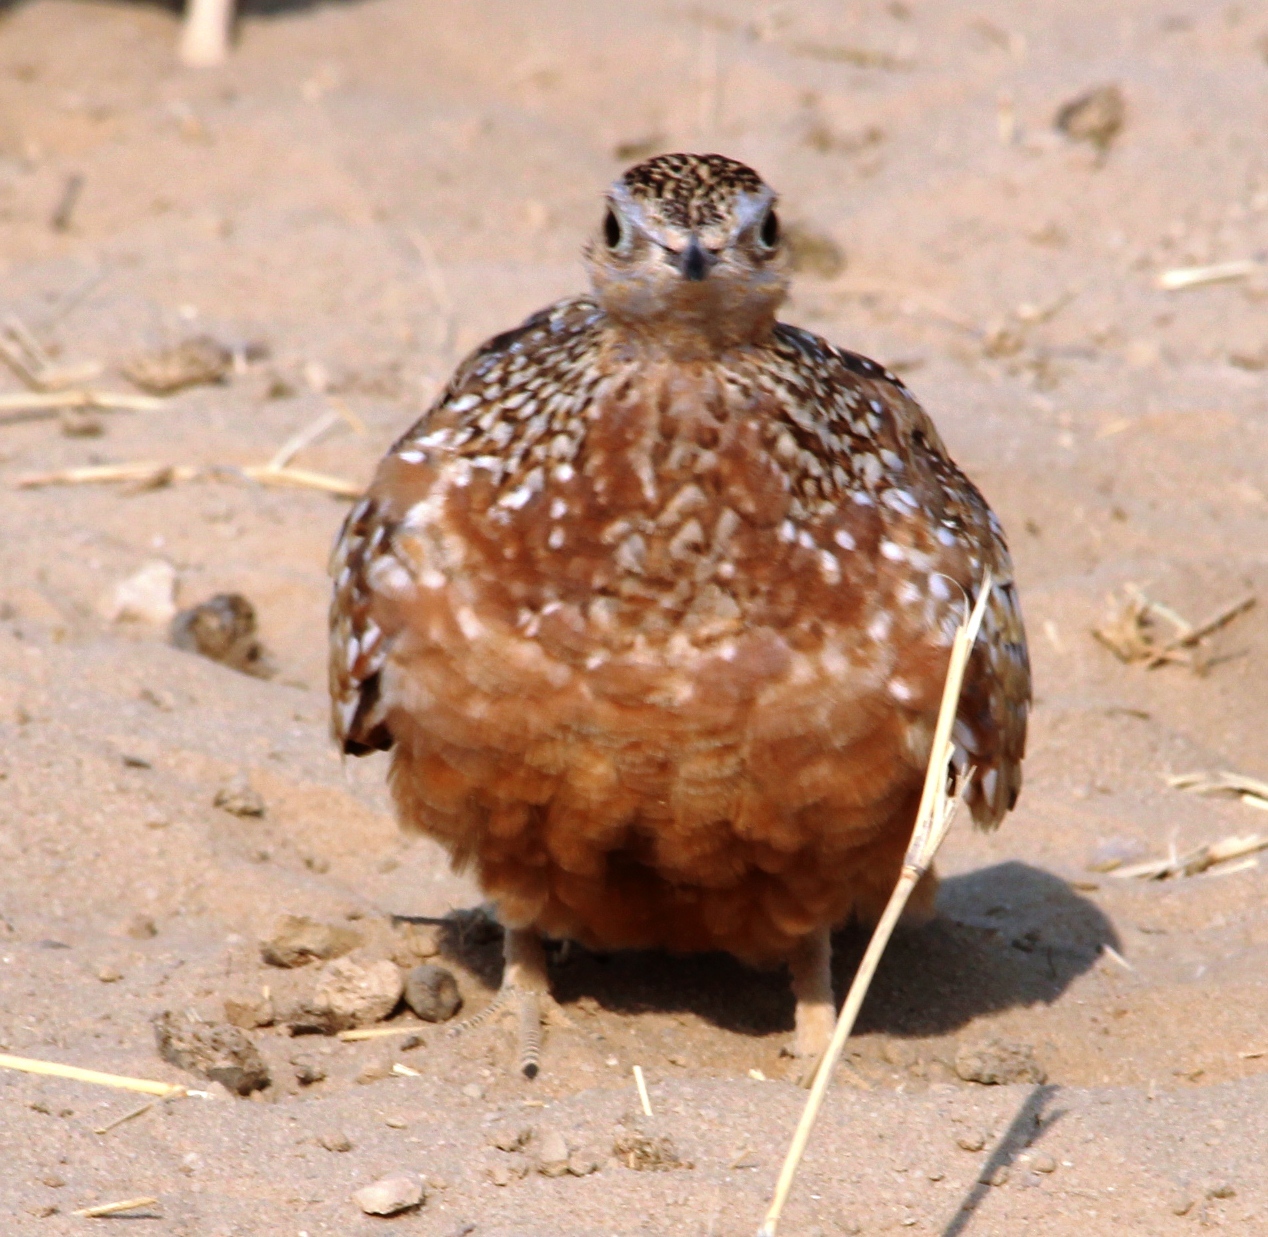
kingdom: Animalia
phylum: Chordata
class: Aves
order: Pteroclidiformes
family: Pteroclididae
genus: Pterocles
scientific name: Pterocles burchelli
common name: Burchell's sandgrouse
